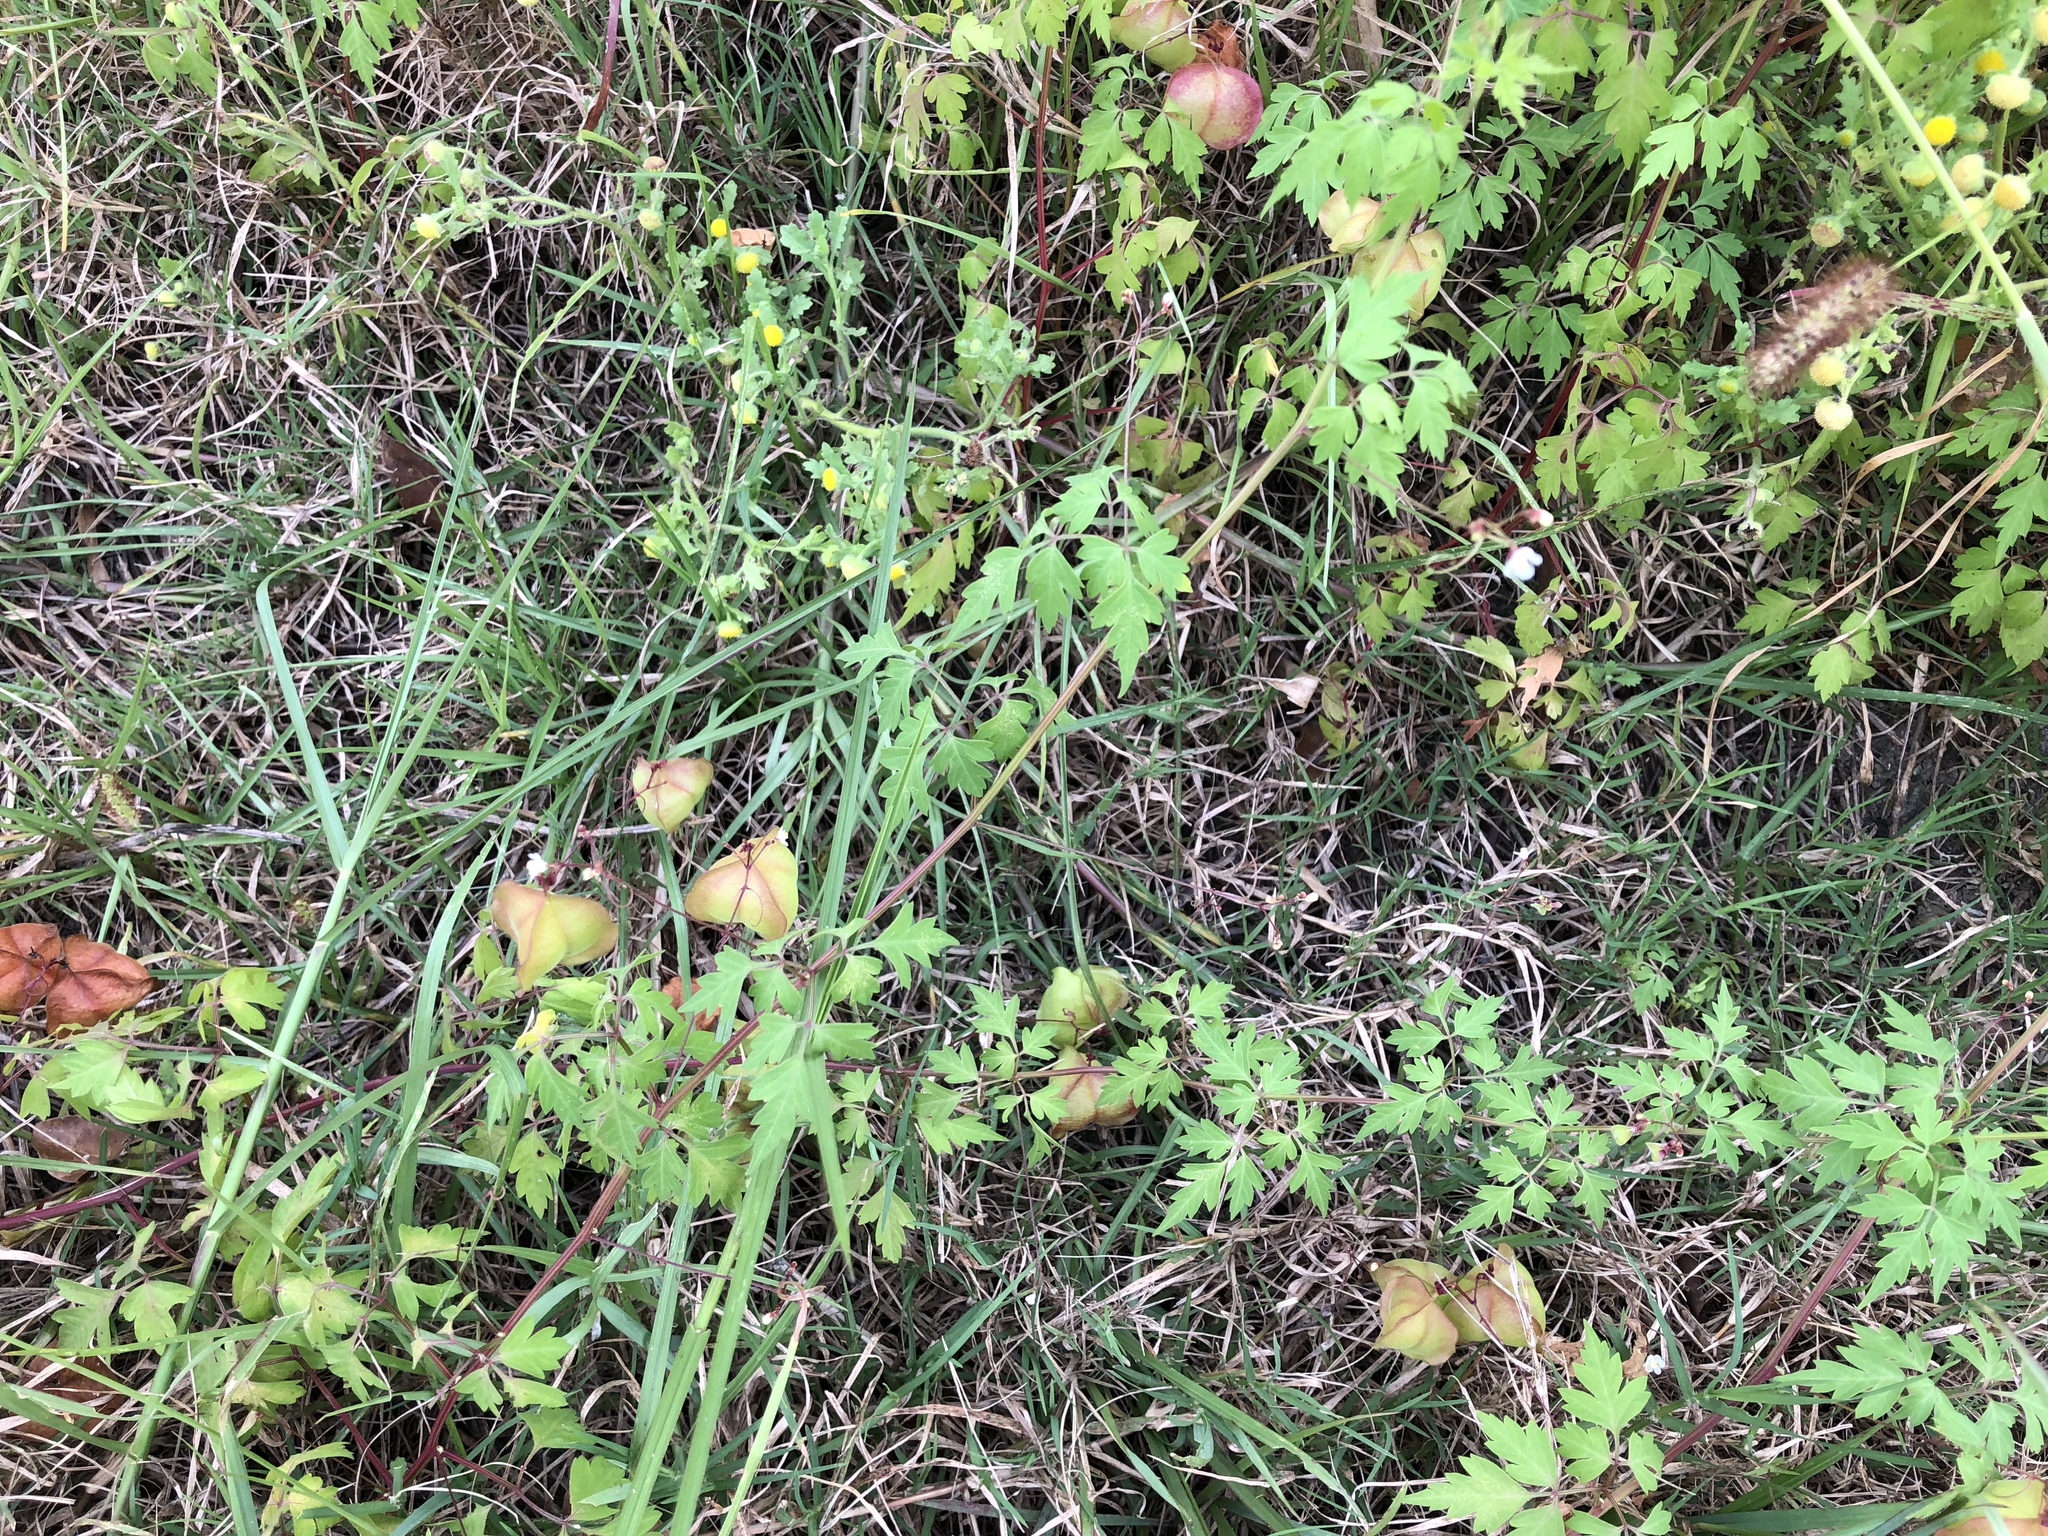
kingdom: Plantae
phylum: Tracheophyta
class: Magnoliopsida
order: Sapindales
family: Sapindaceae
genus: Cardiospermum
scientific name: Cardiospermum halicacabum
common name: Balloon vine
